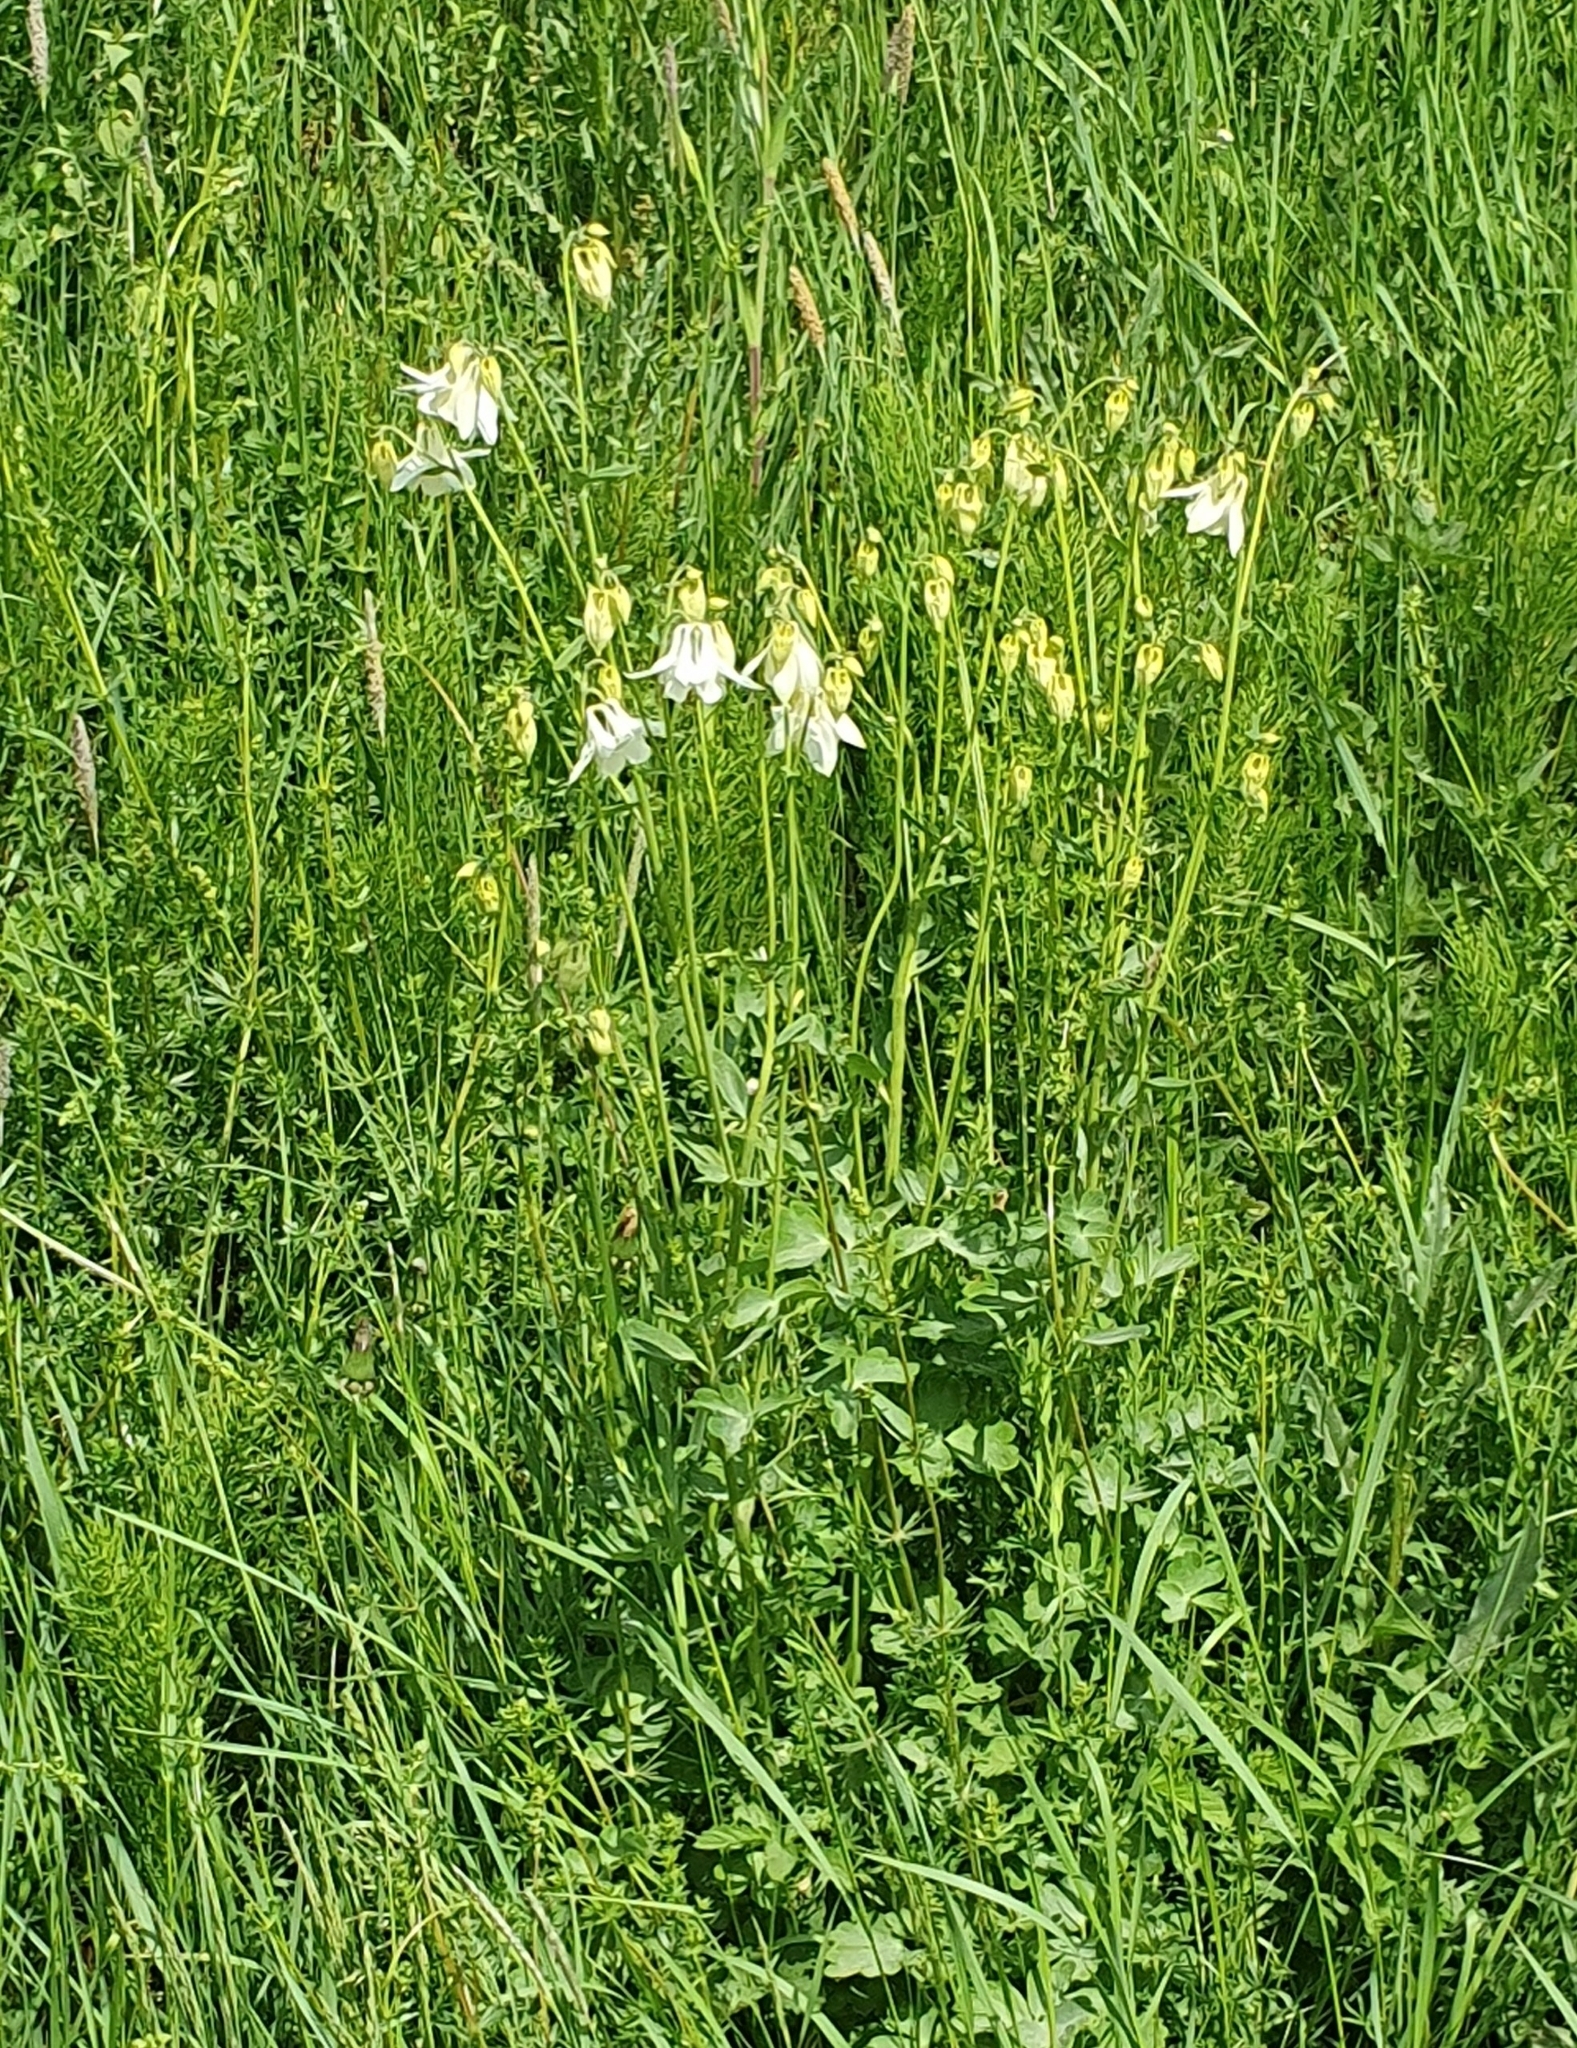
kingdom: Plantae
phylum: Tracheophyta
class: Magnoliopsida
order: Ranunculales
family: Ranunculaceae
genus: Aquilegia
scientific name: Aquilegia vulgaris
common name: Columbine
